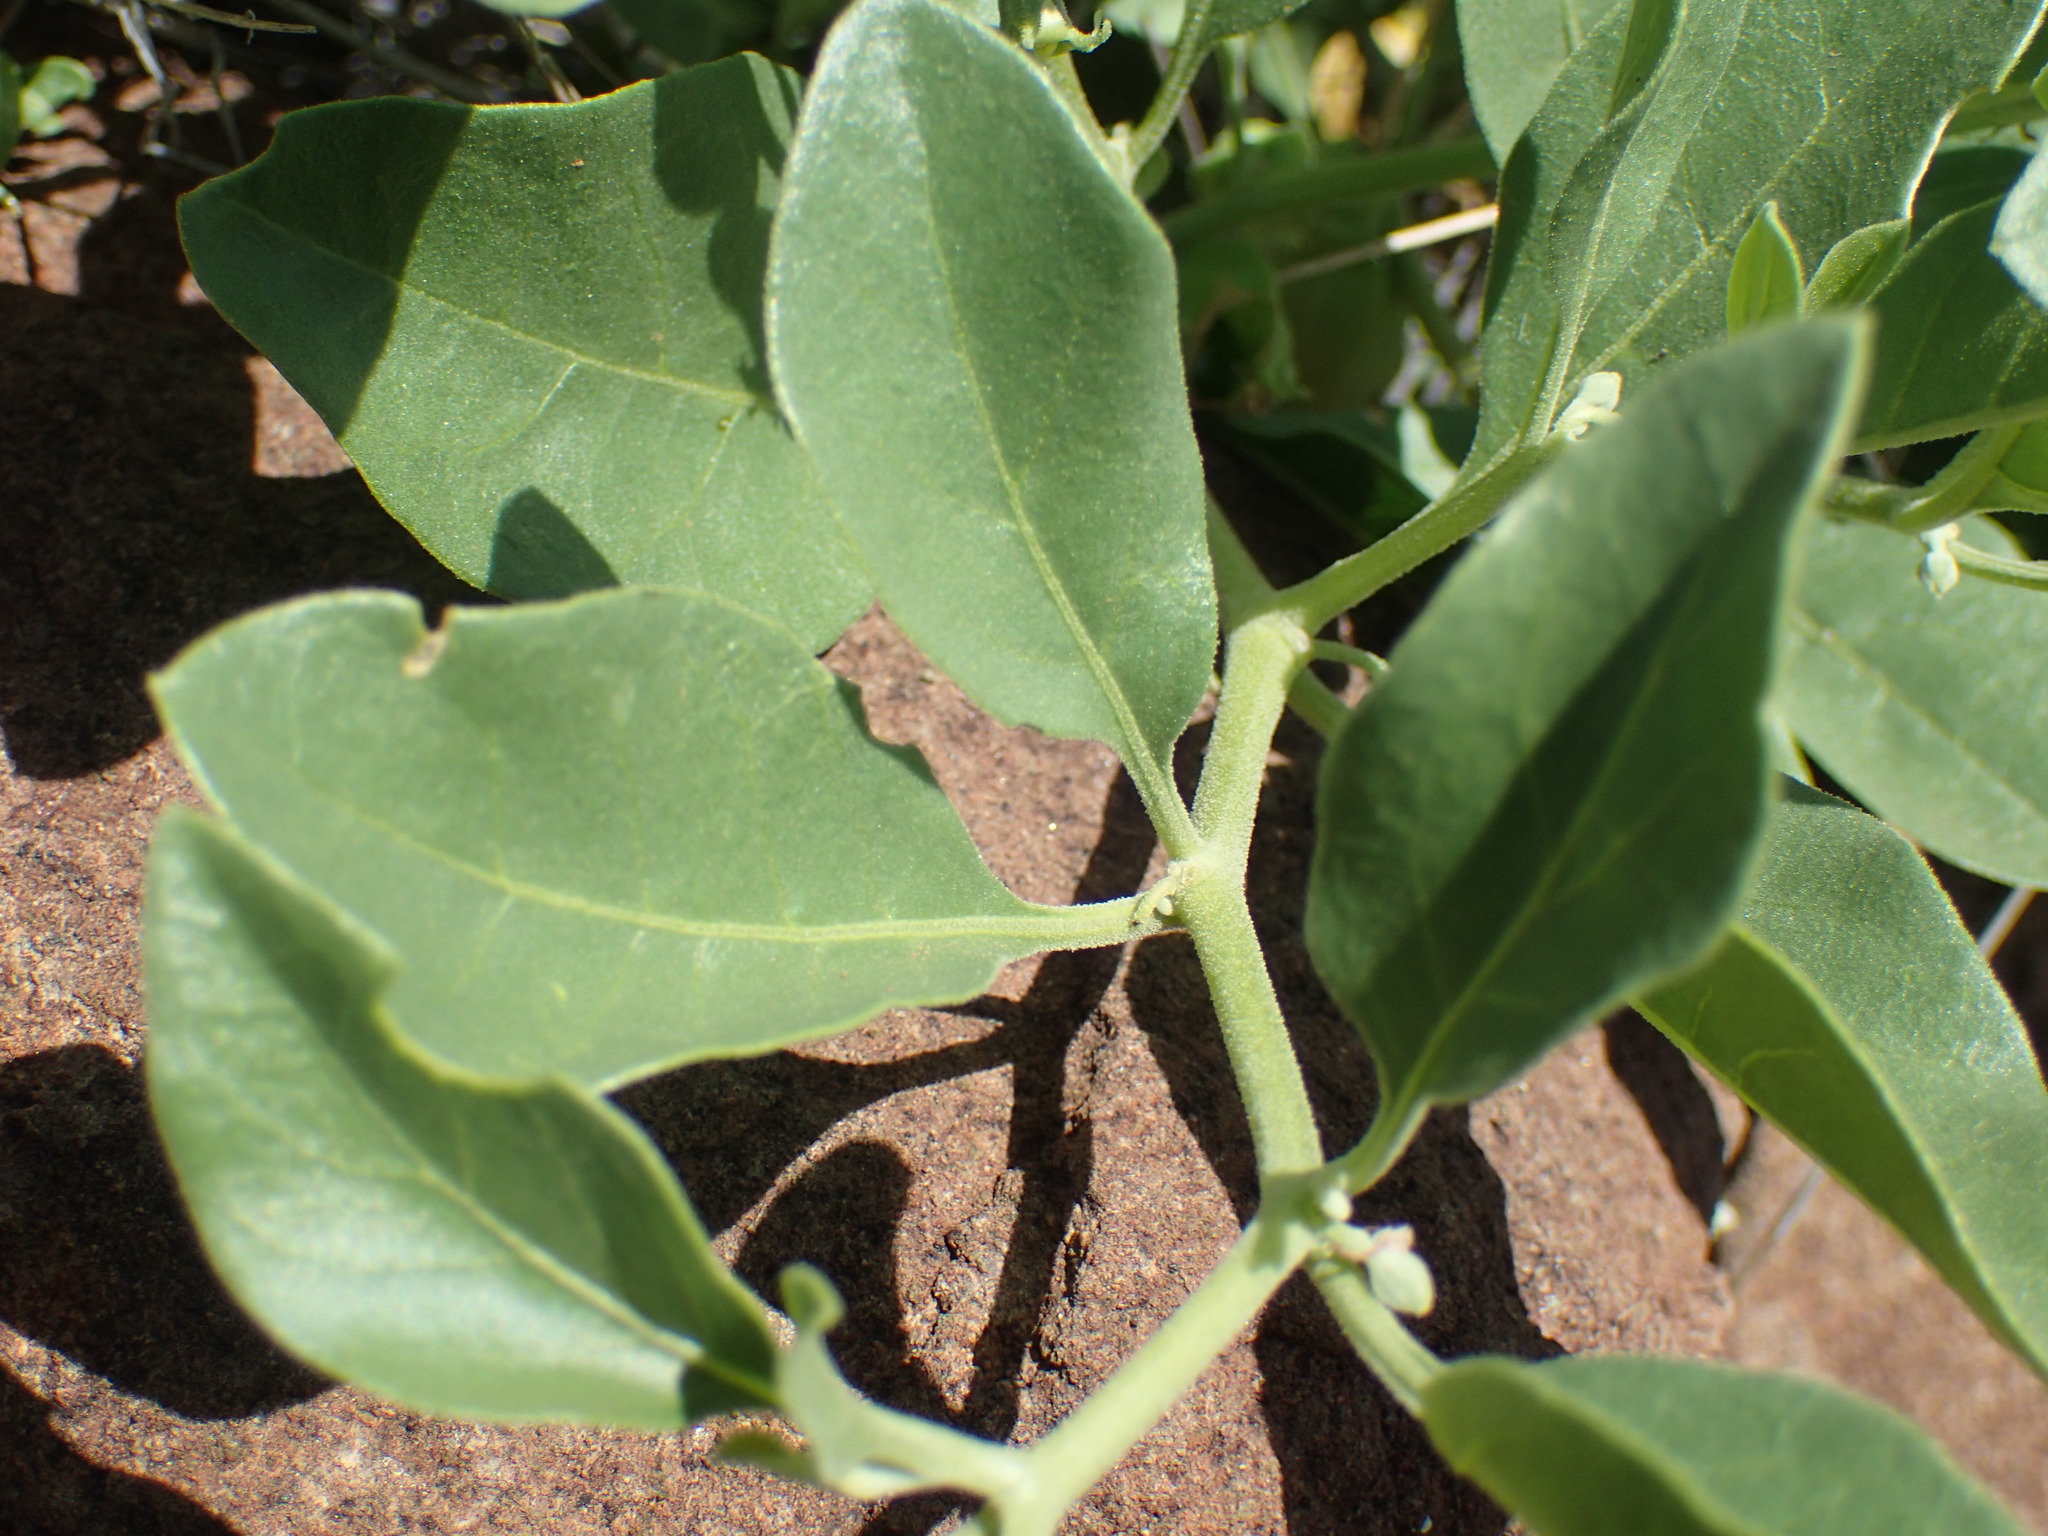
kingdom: Plantae
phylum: Tracheophyta
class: Magnoliopsida
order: Solanales
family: Solanaceae
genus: Withania
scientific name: Withania somnifera
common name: Winter-cherry
